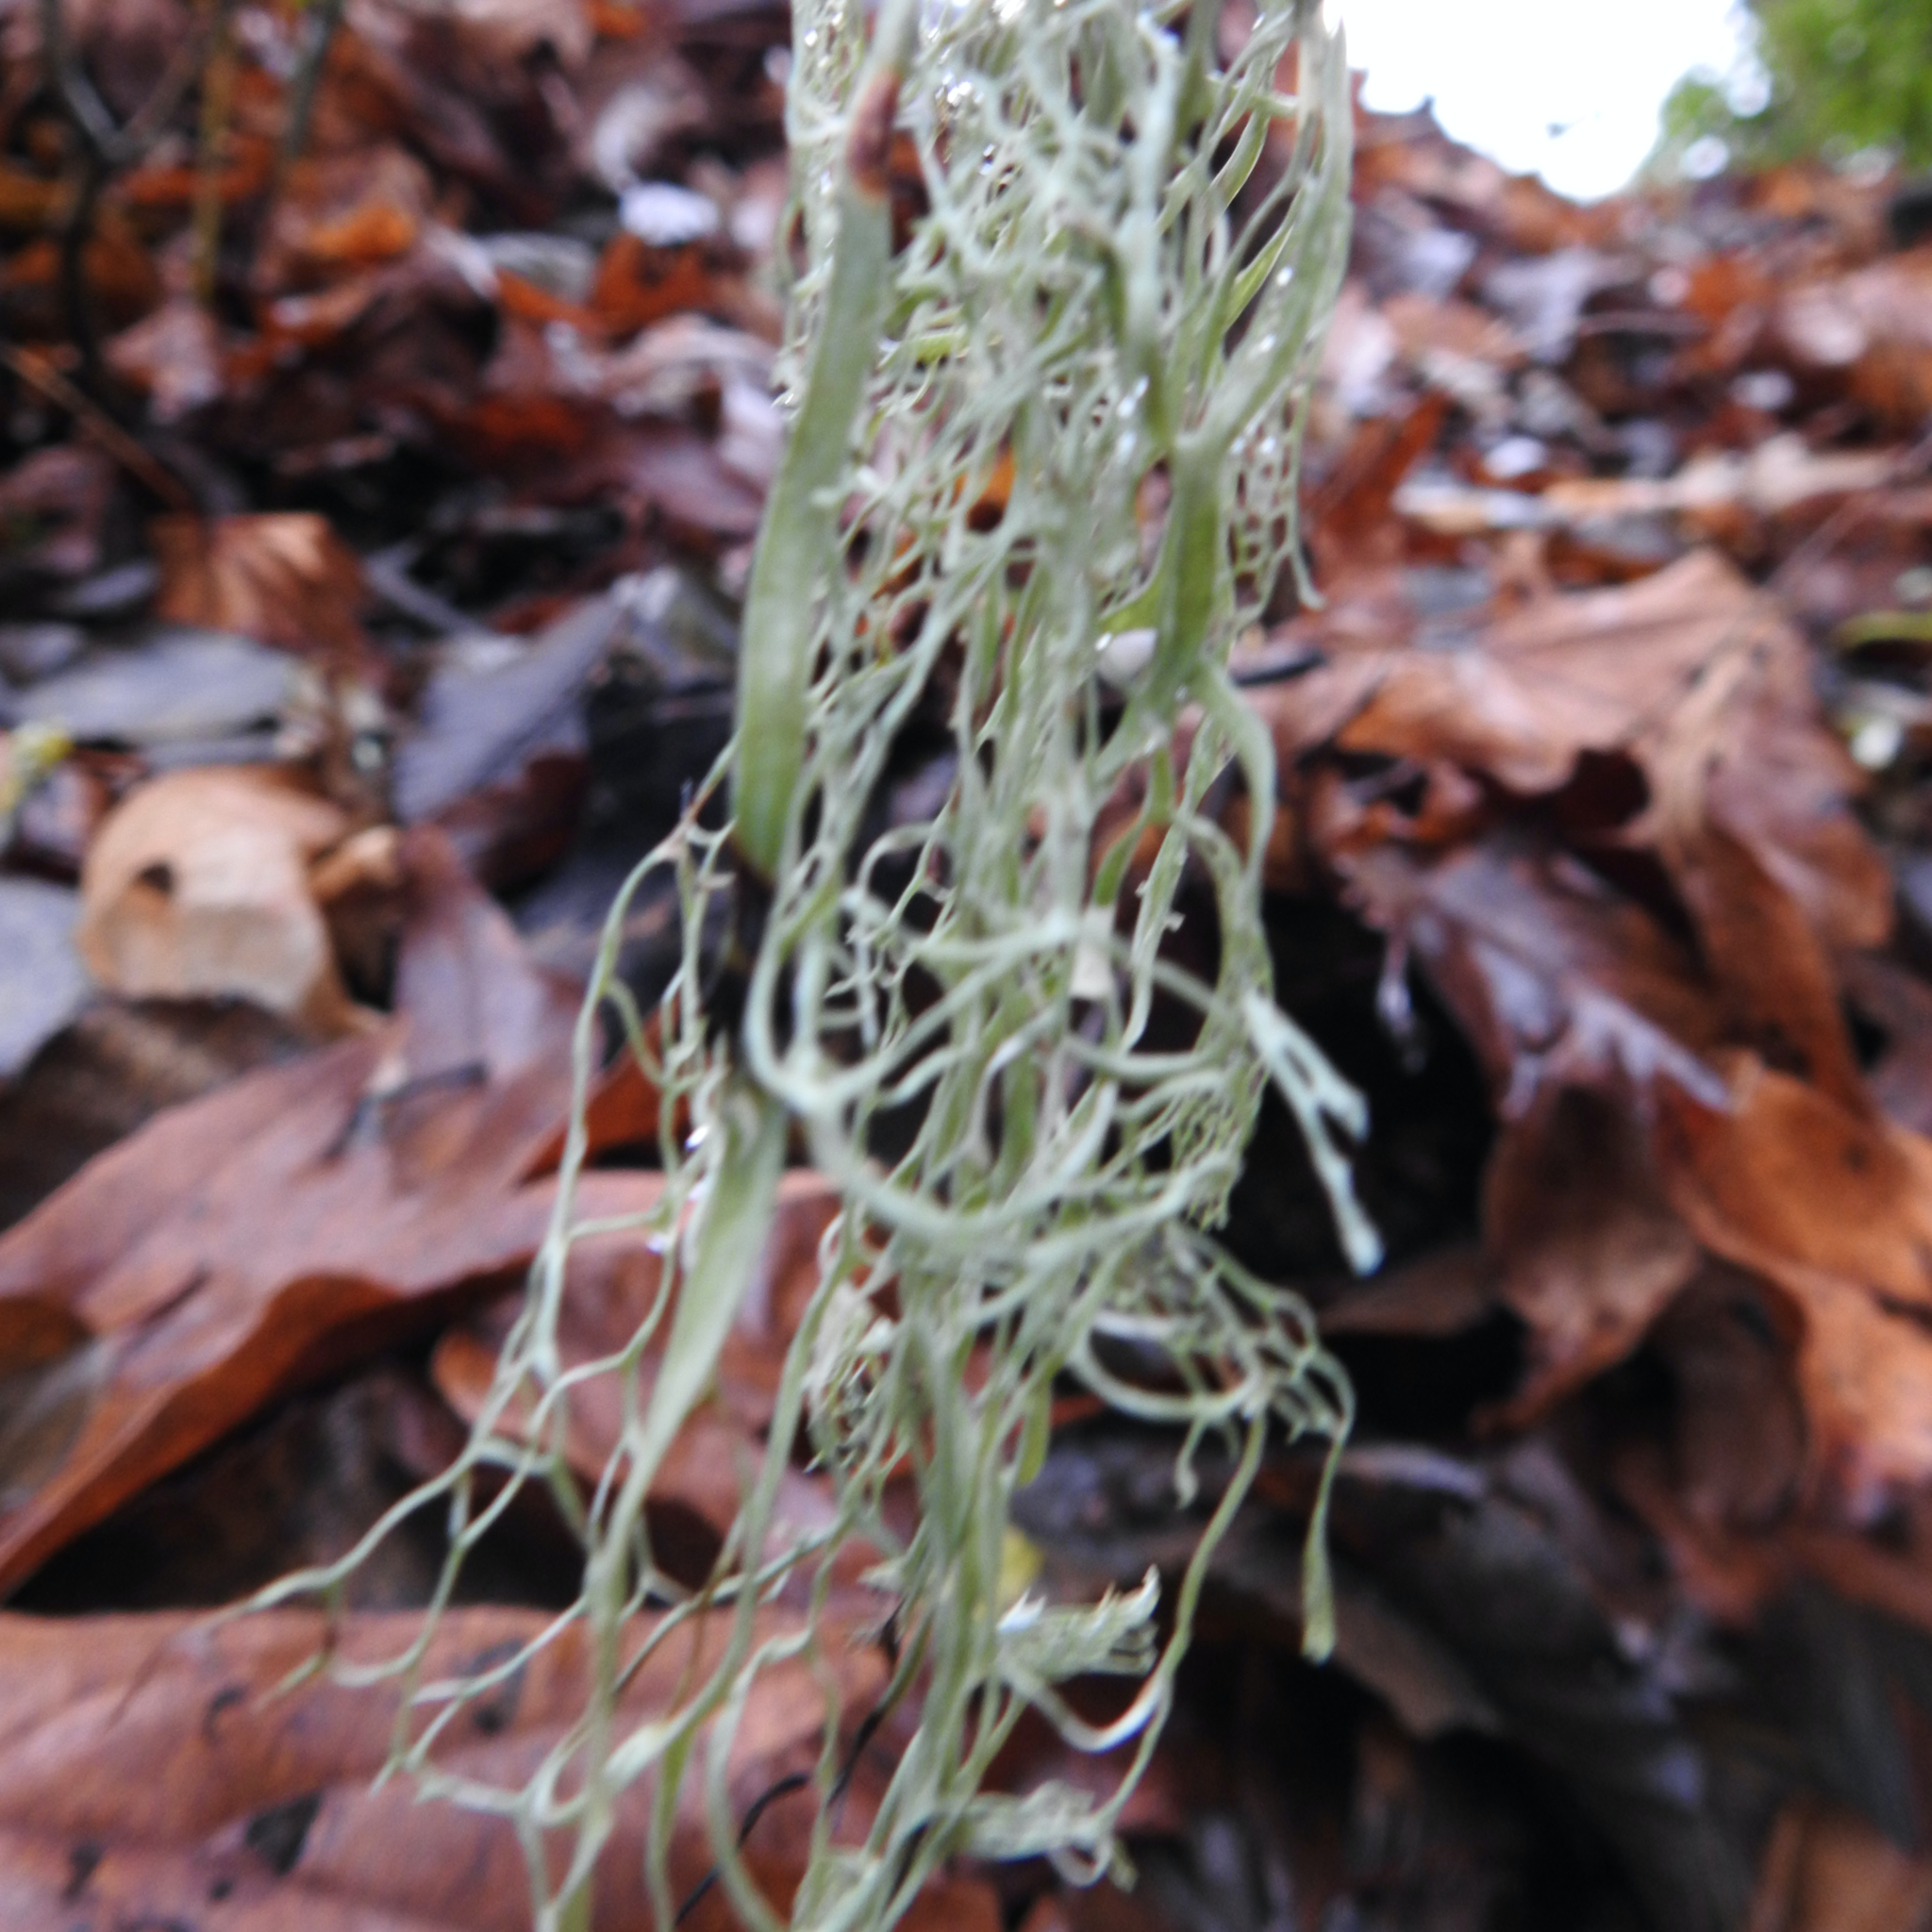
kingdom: Fungi
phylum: Ascomycota
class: Lecanoromycetes
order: Lecanorales
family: Ramalinaceae
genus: Ramalina
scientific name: Ramalina menziesii
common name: Lace lichen
